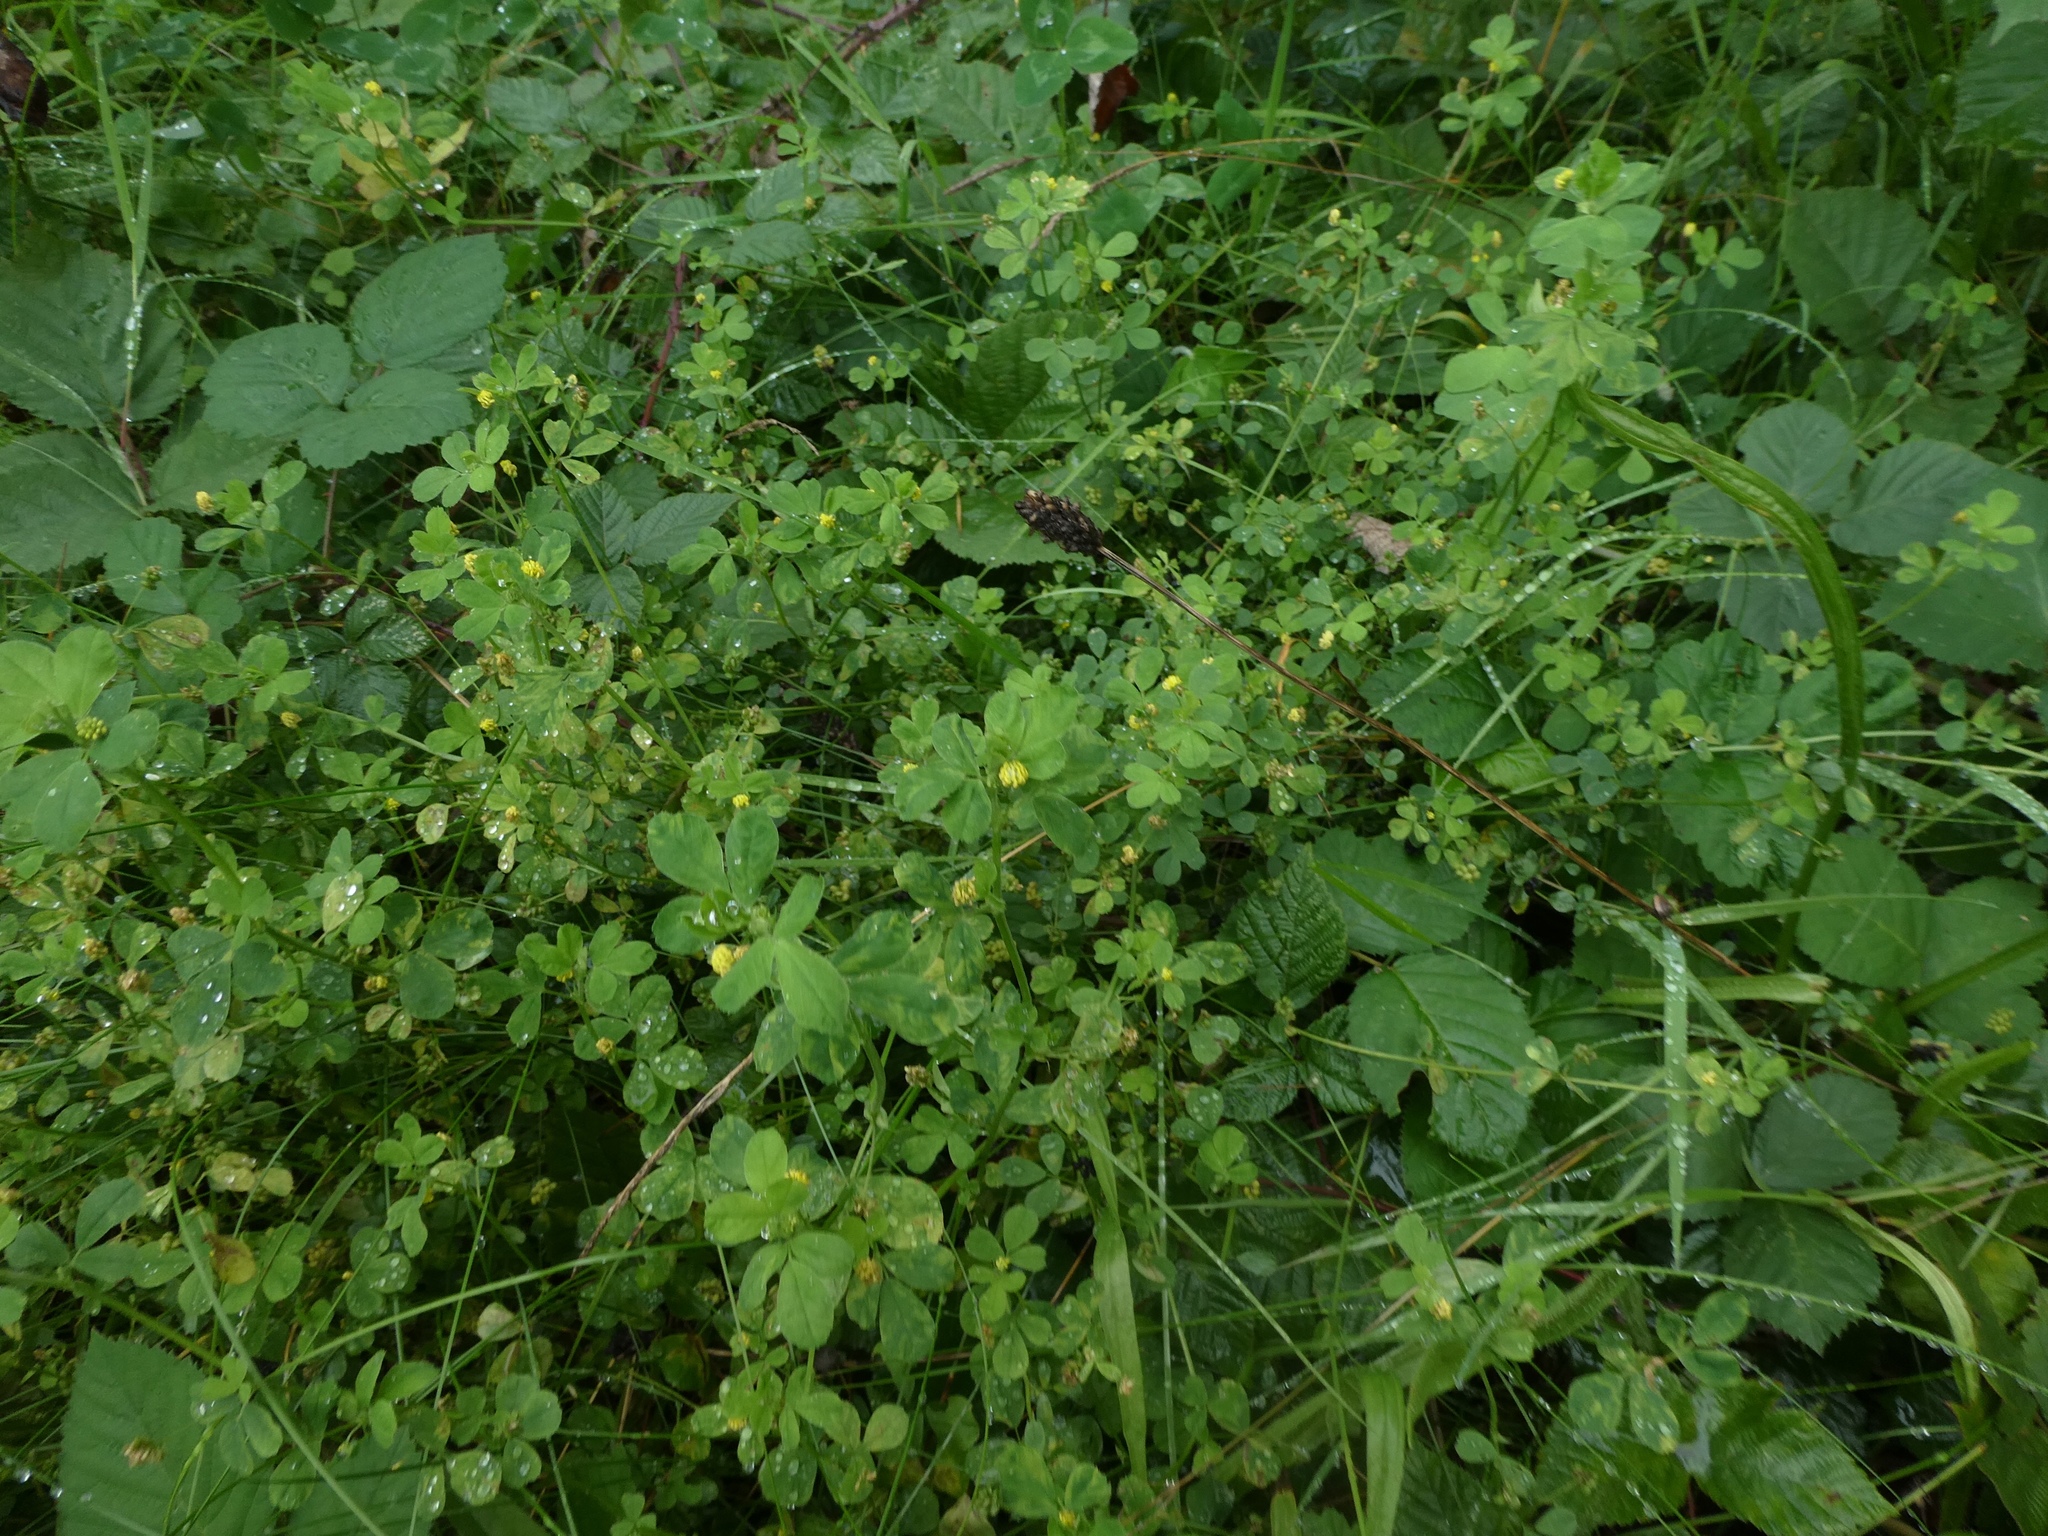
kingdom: Plantae
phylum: Tracheophyta
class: Magnoliopsida
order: Fabales
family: Fabaceae
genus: Medicago
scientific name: Medicago lupulina
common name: Black medick
